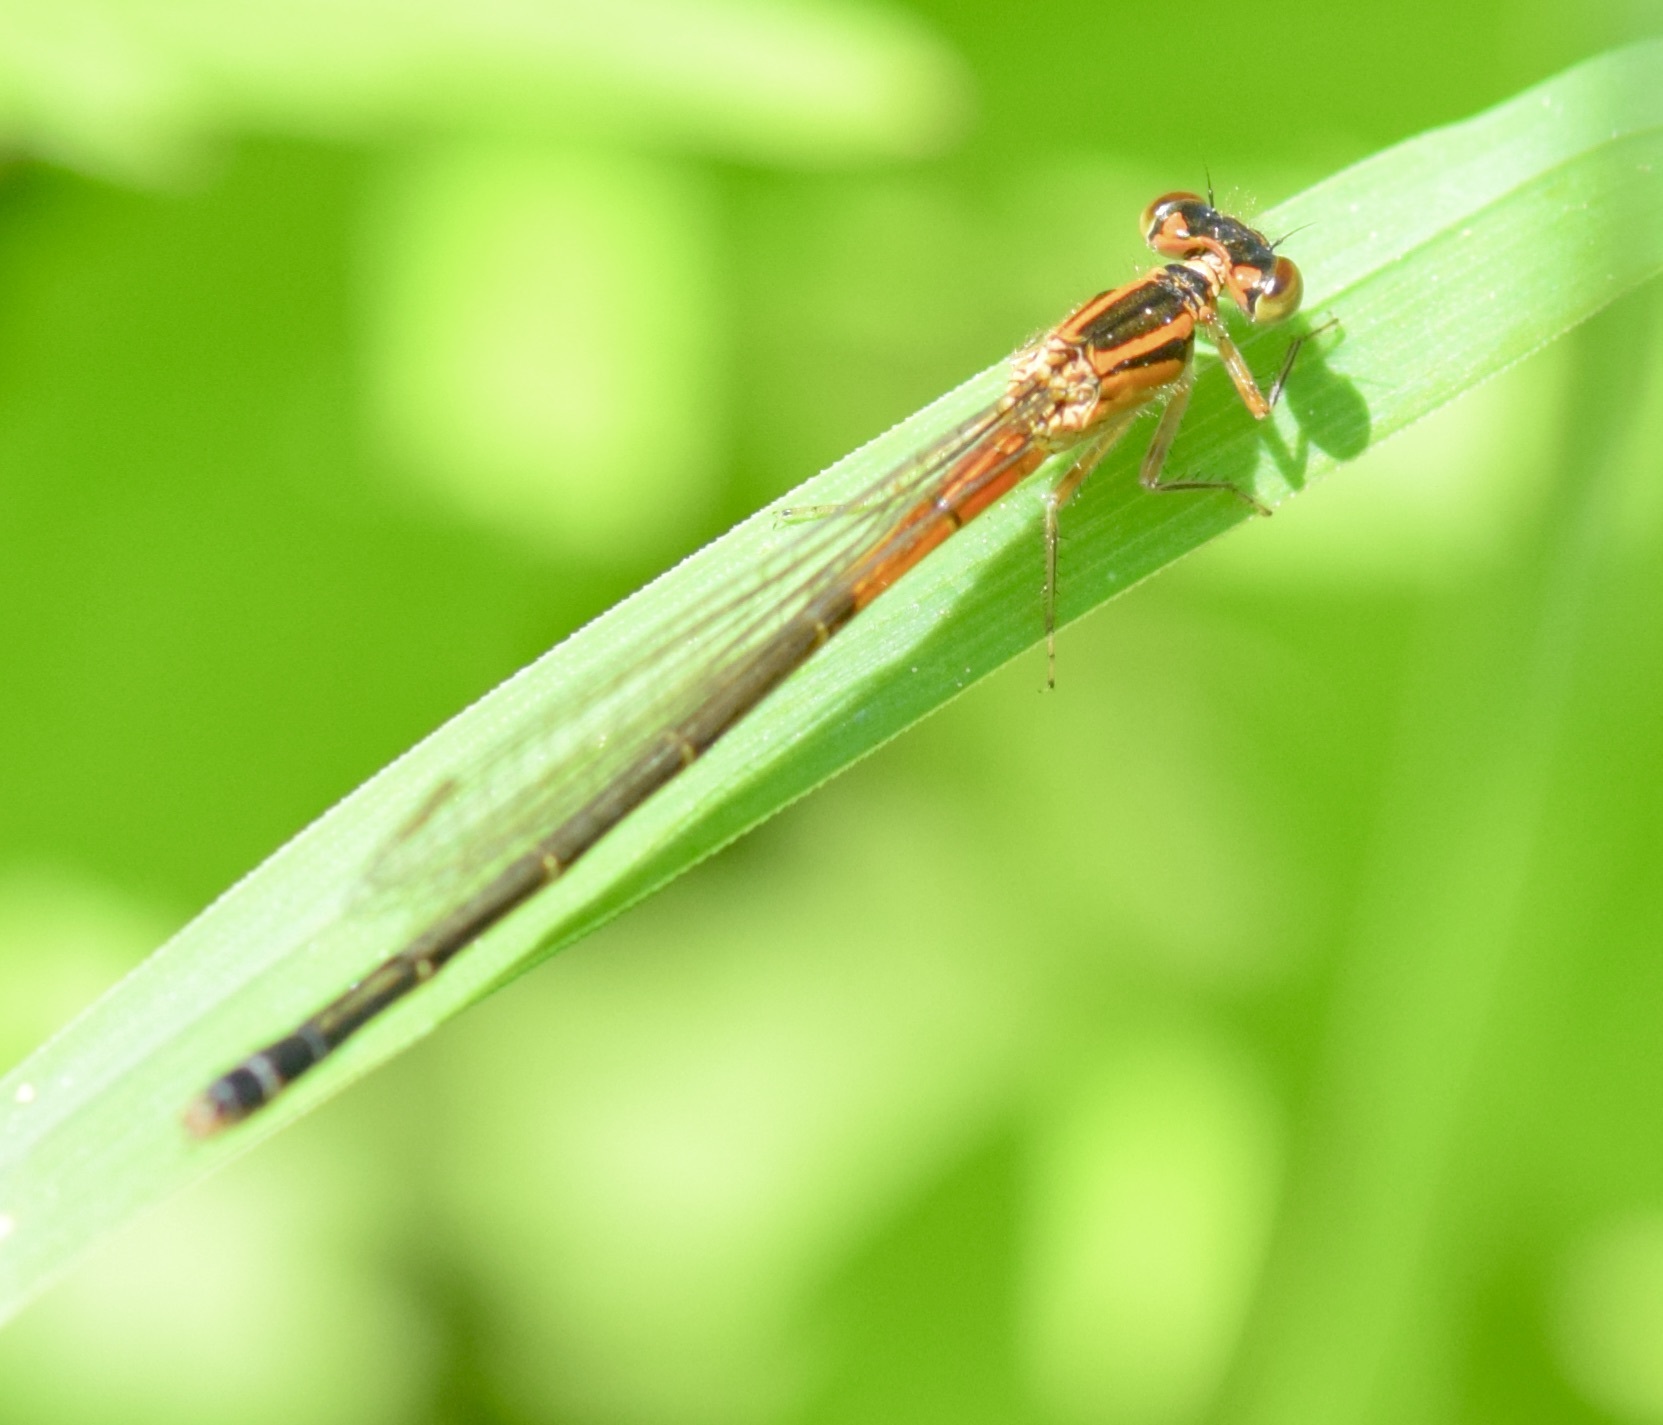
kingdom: Animalia
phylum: Arthropoda
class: Insecta
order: Odonata
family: Coenagrionidae
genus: Ischnura
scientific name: Ischnura verticalis
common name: Eastern forktail
